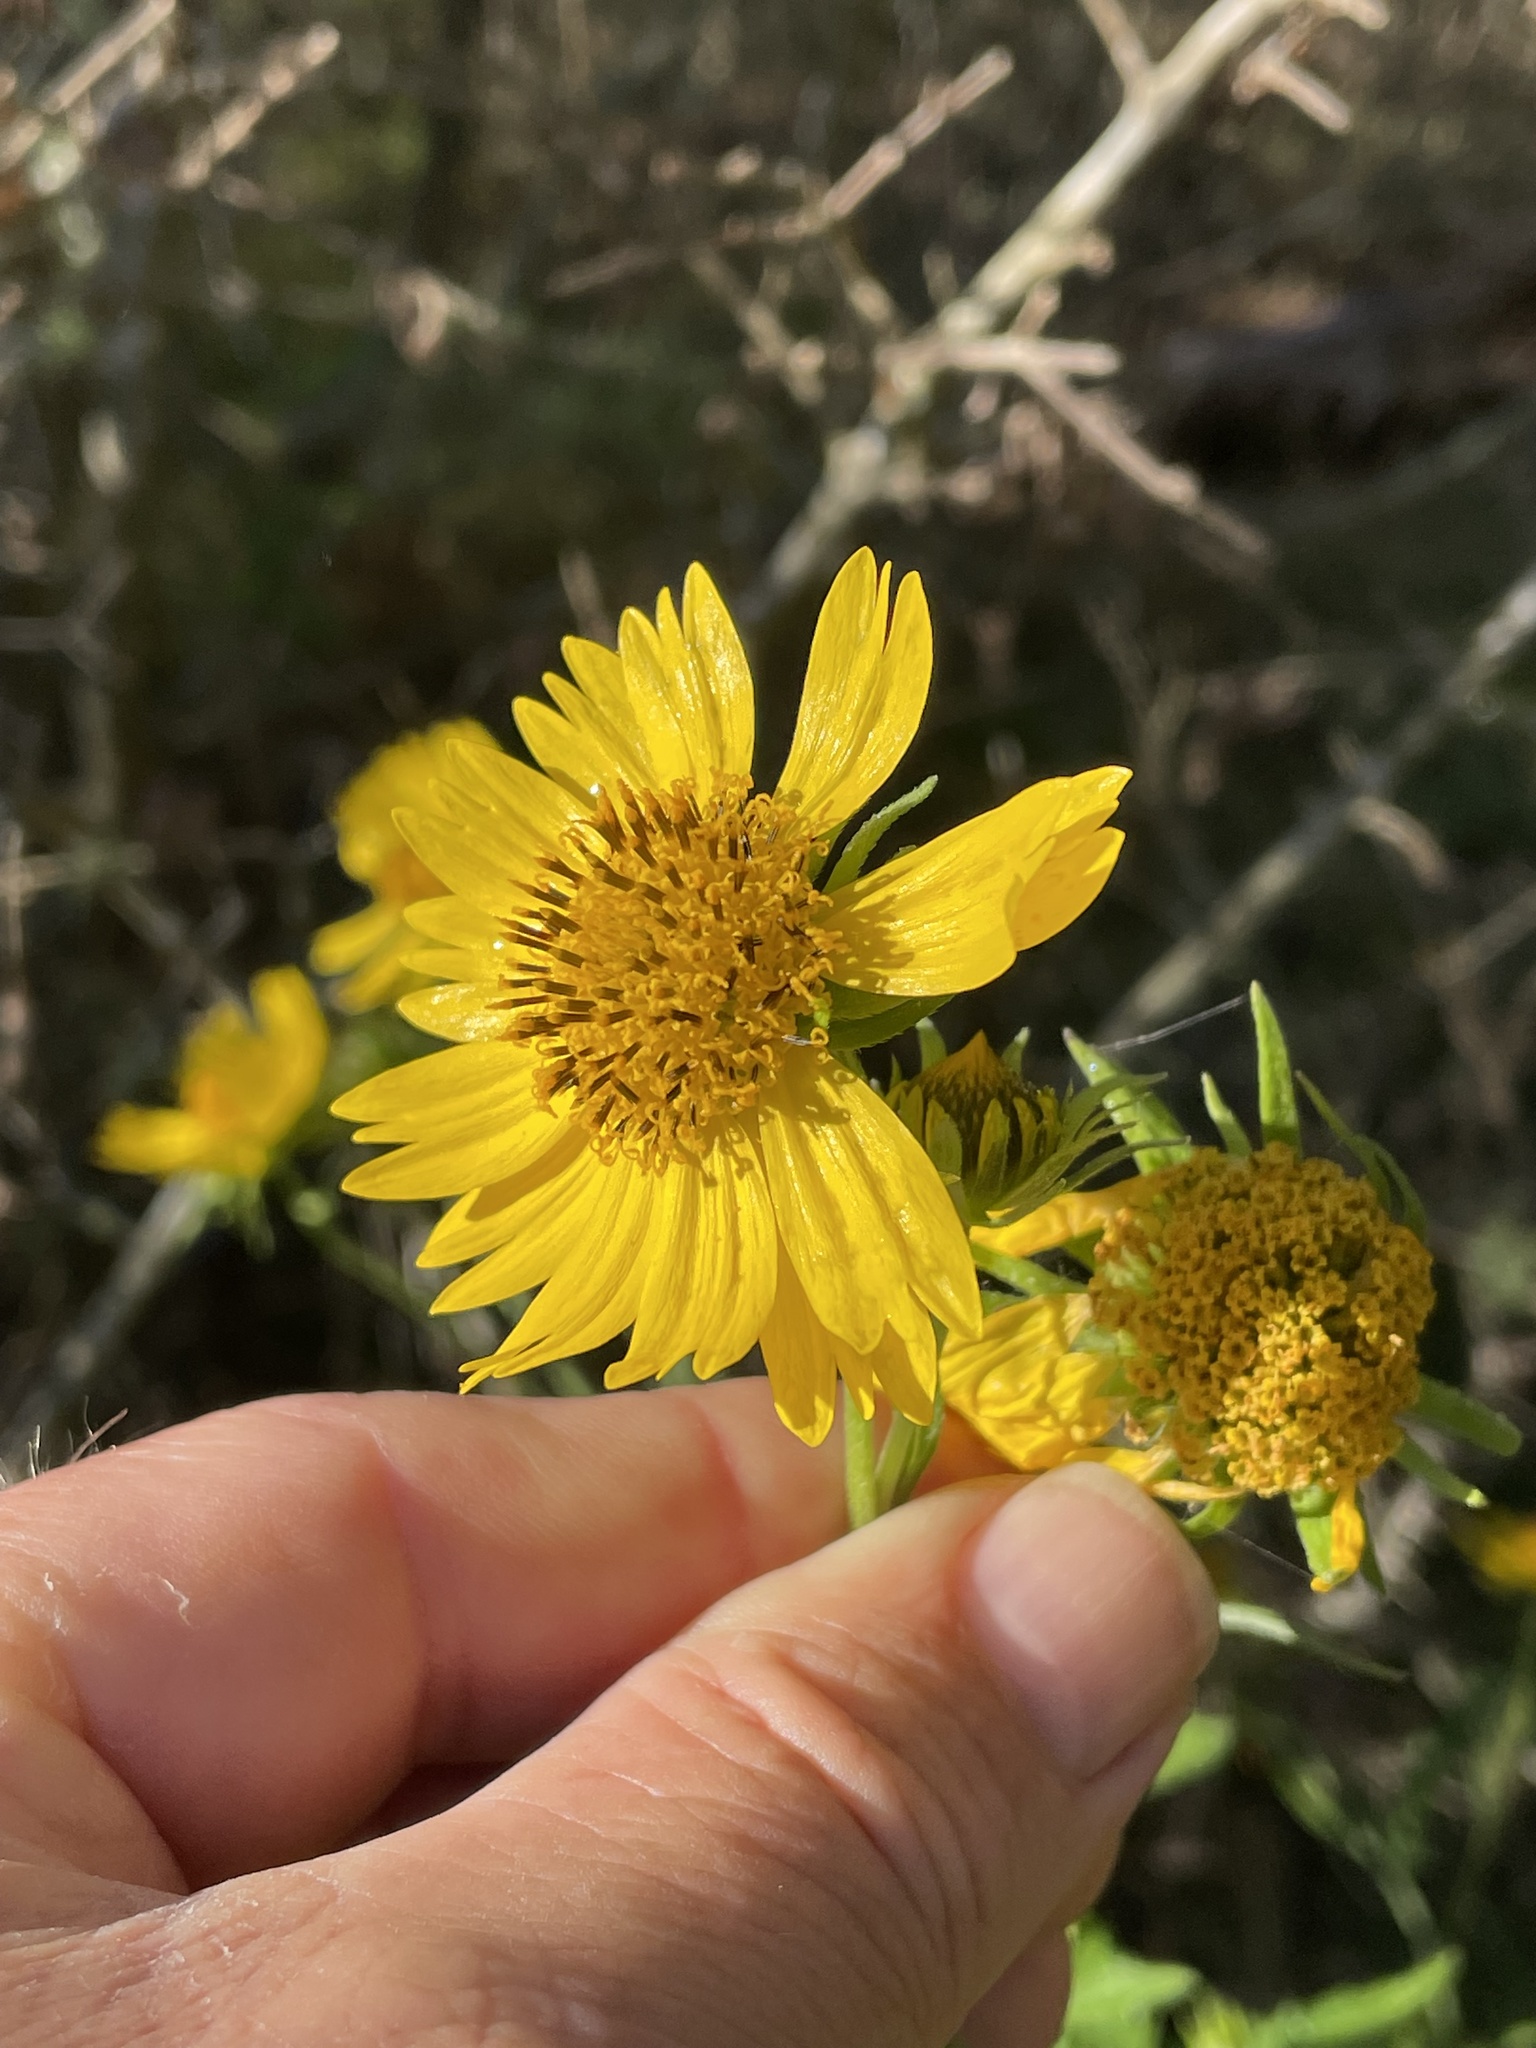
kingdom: Plantae
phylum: Tracheophyta
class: Magnoliopsida
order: Asterales
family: Asteraceae
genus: Verbesina
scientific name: Verbesina encelioides
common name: Golden crownbeard
